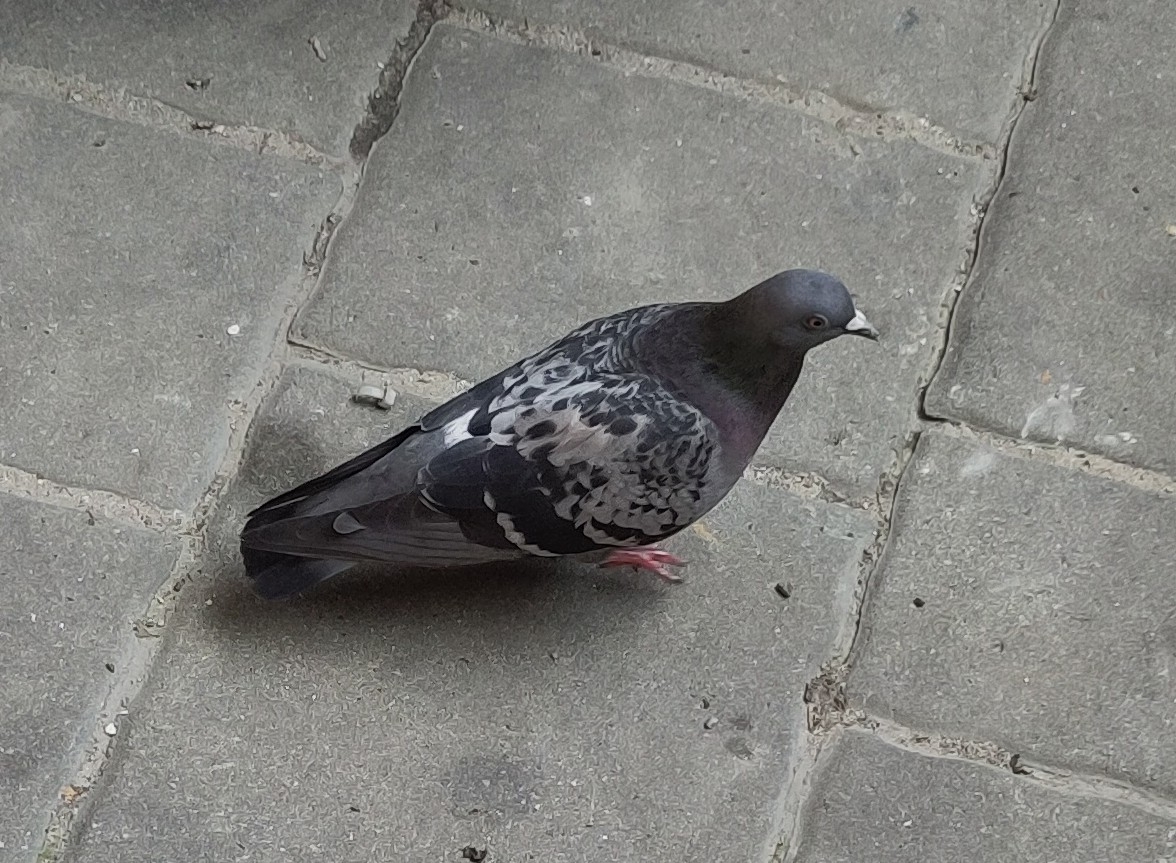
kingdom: Animalia
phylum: Chordata
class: Aves
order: Columbiformes
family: Columbidae
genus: Columba
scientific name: Columba livia
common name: Rock pigeon
